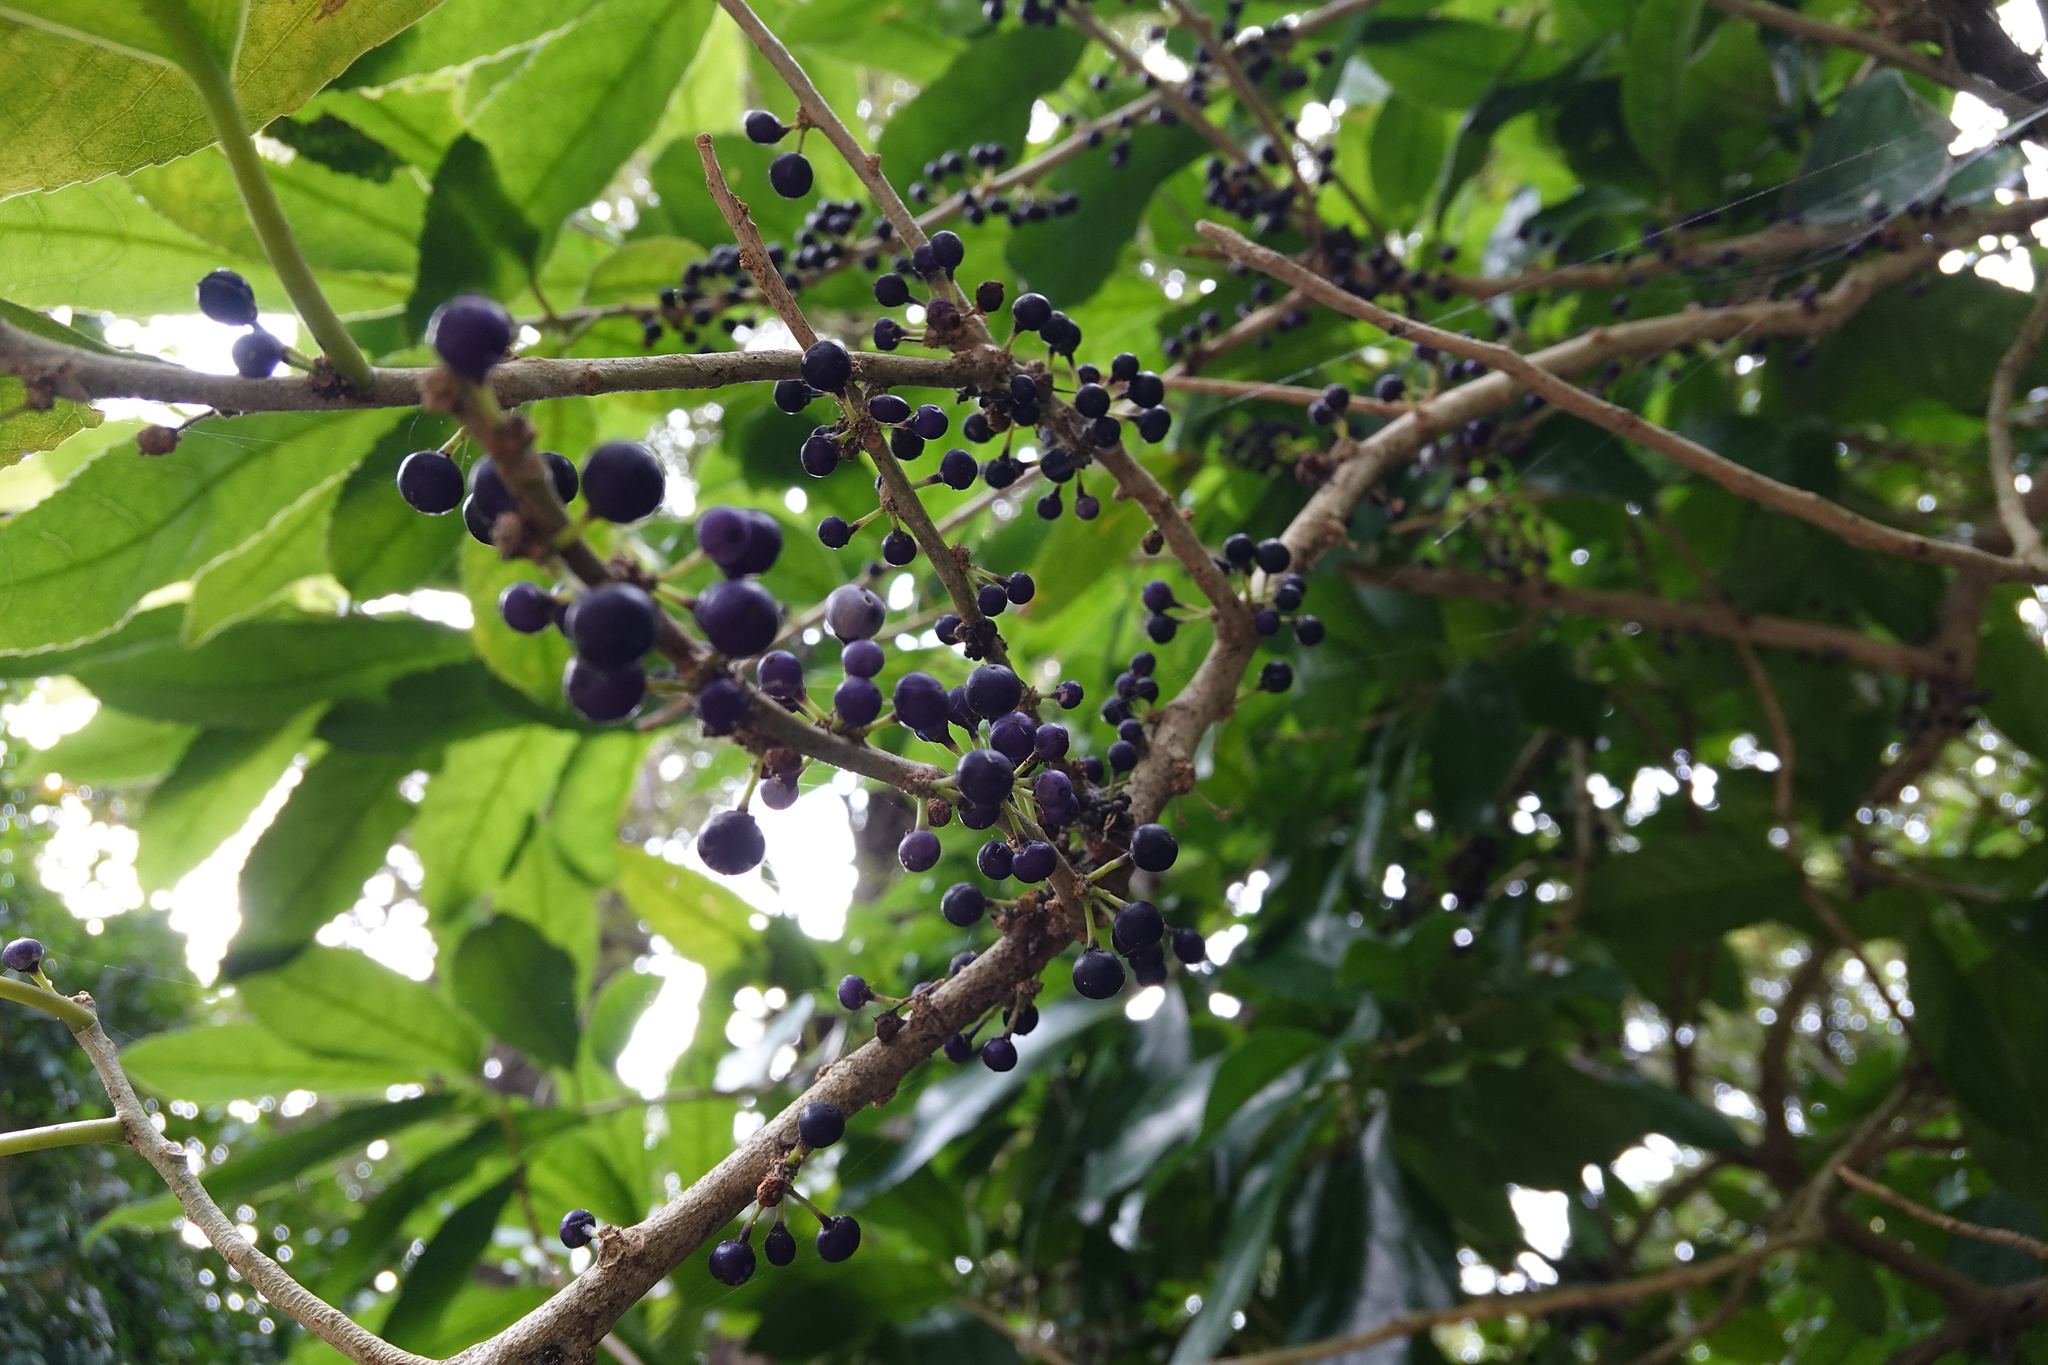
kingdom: Plantae
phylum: Tracheophyta
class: Magnoliopsida
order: Malpighiales
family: Violaceae
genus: Melicytus
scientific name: Melicytus ramiflorus
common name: Mahoe
